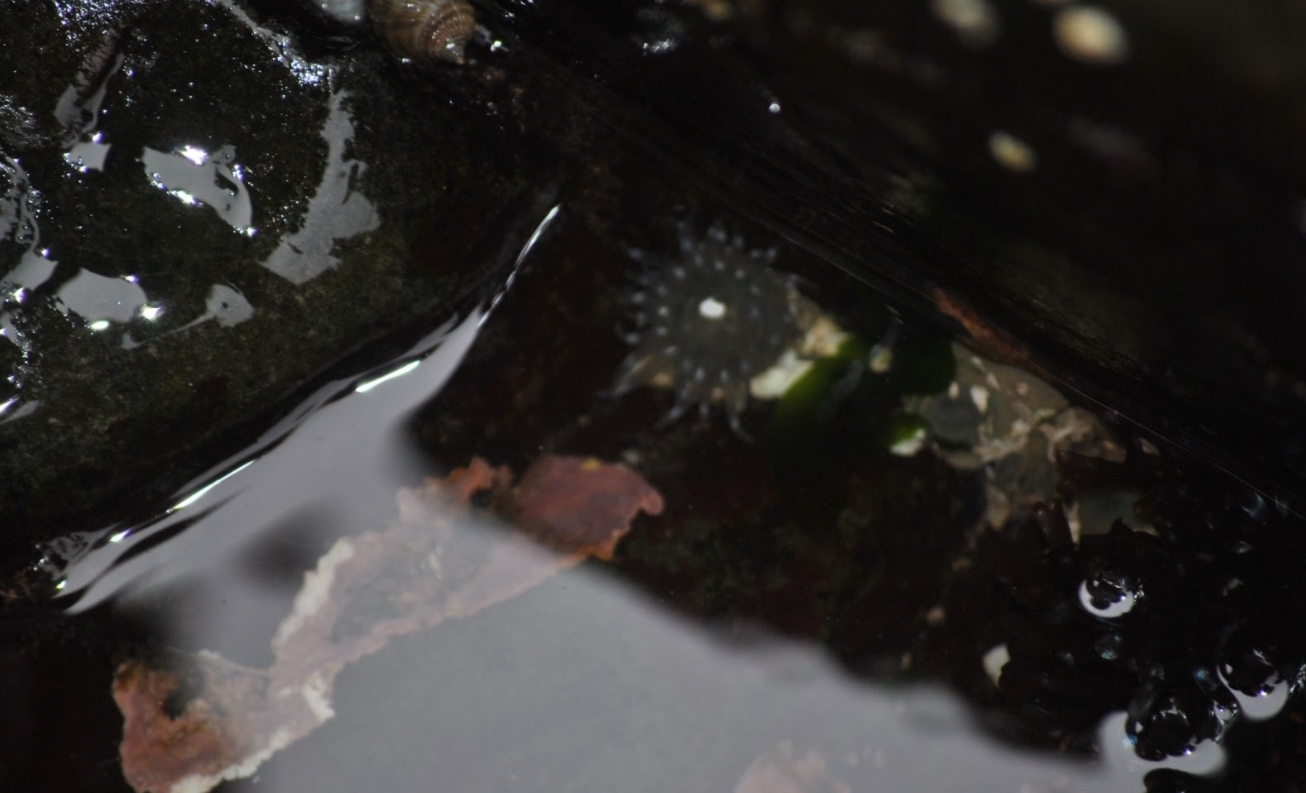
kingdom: Animalia
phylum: Cnidaria
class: Anthozoa
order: Actiniaria
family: Actiniidae
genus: Aulactinia
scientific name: Aulactinia stella
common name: Silver-spotted sea anemone
